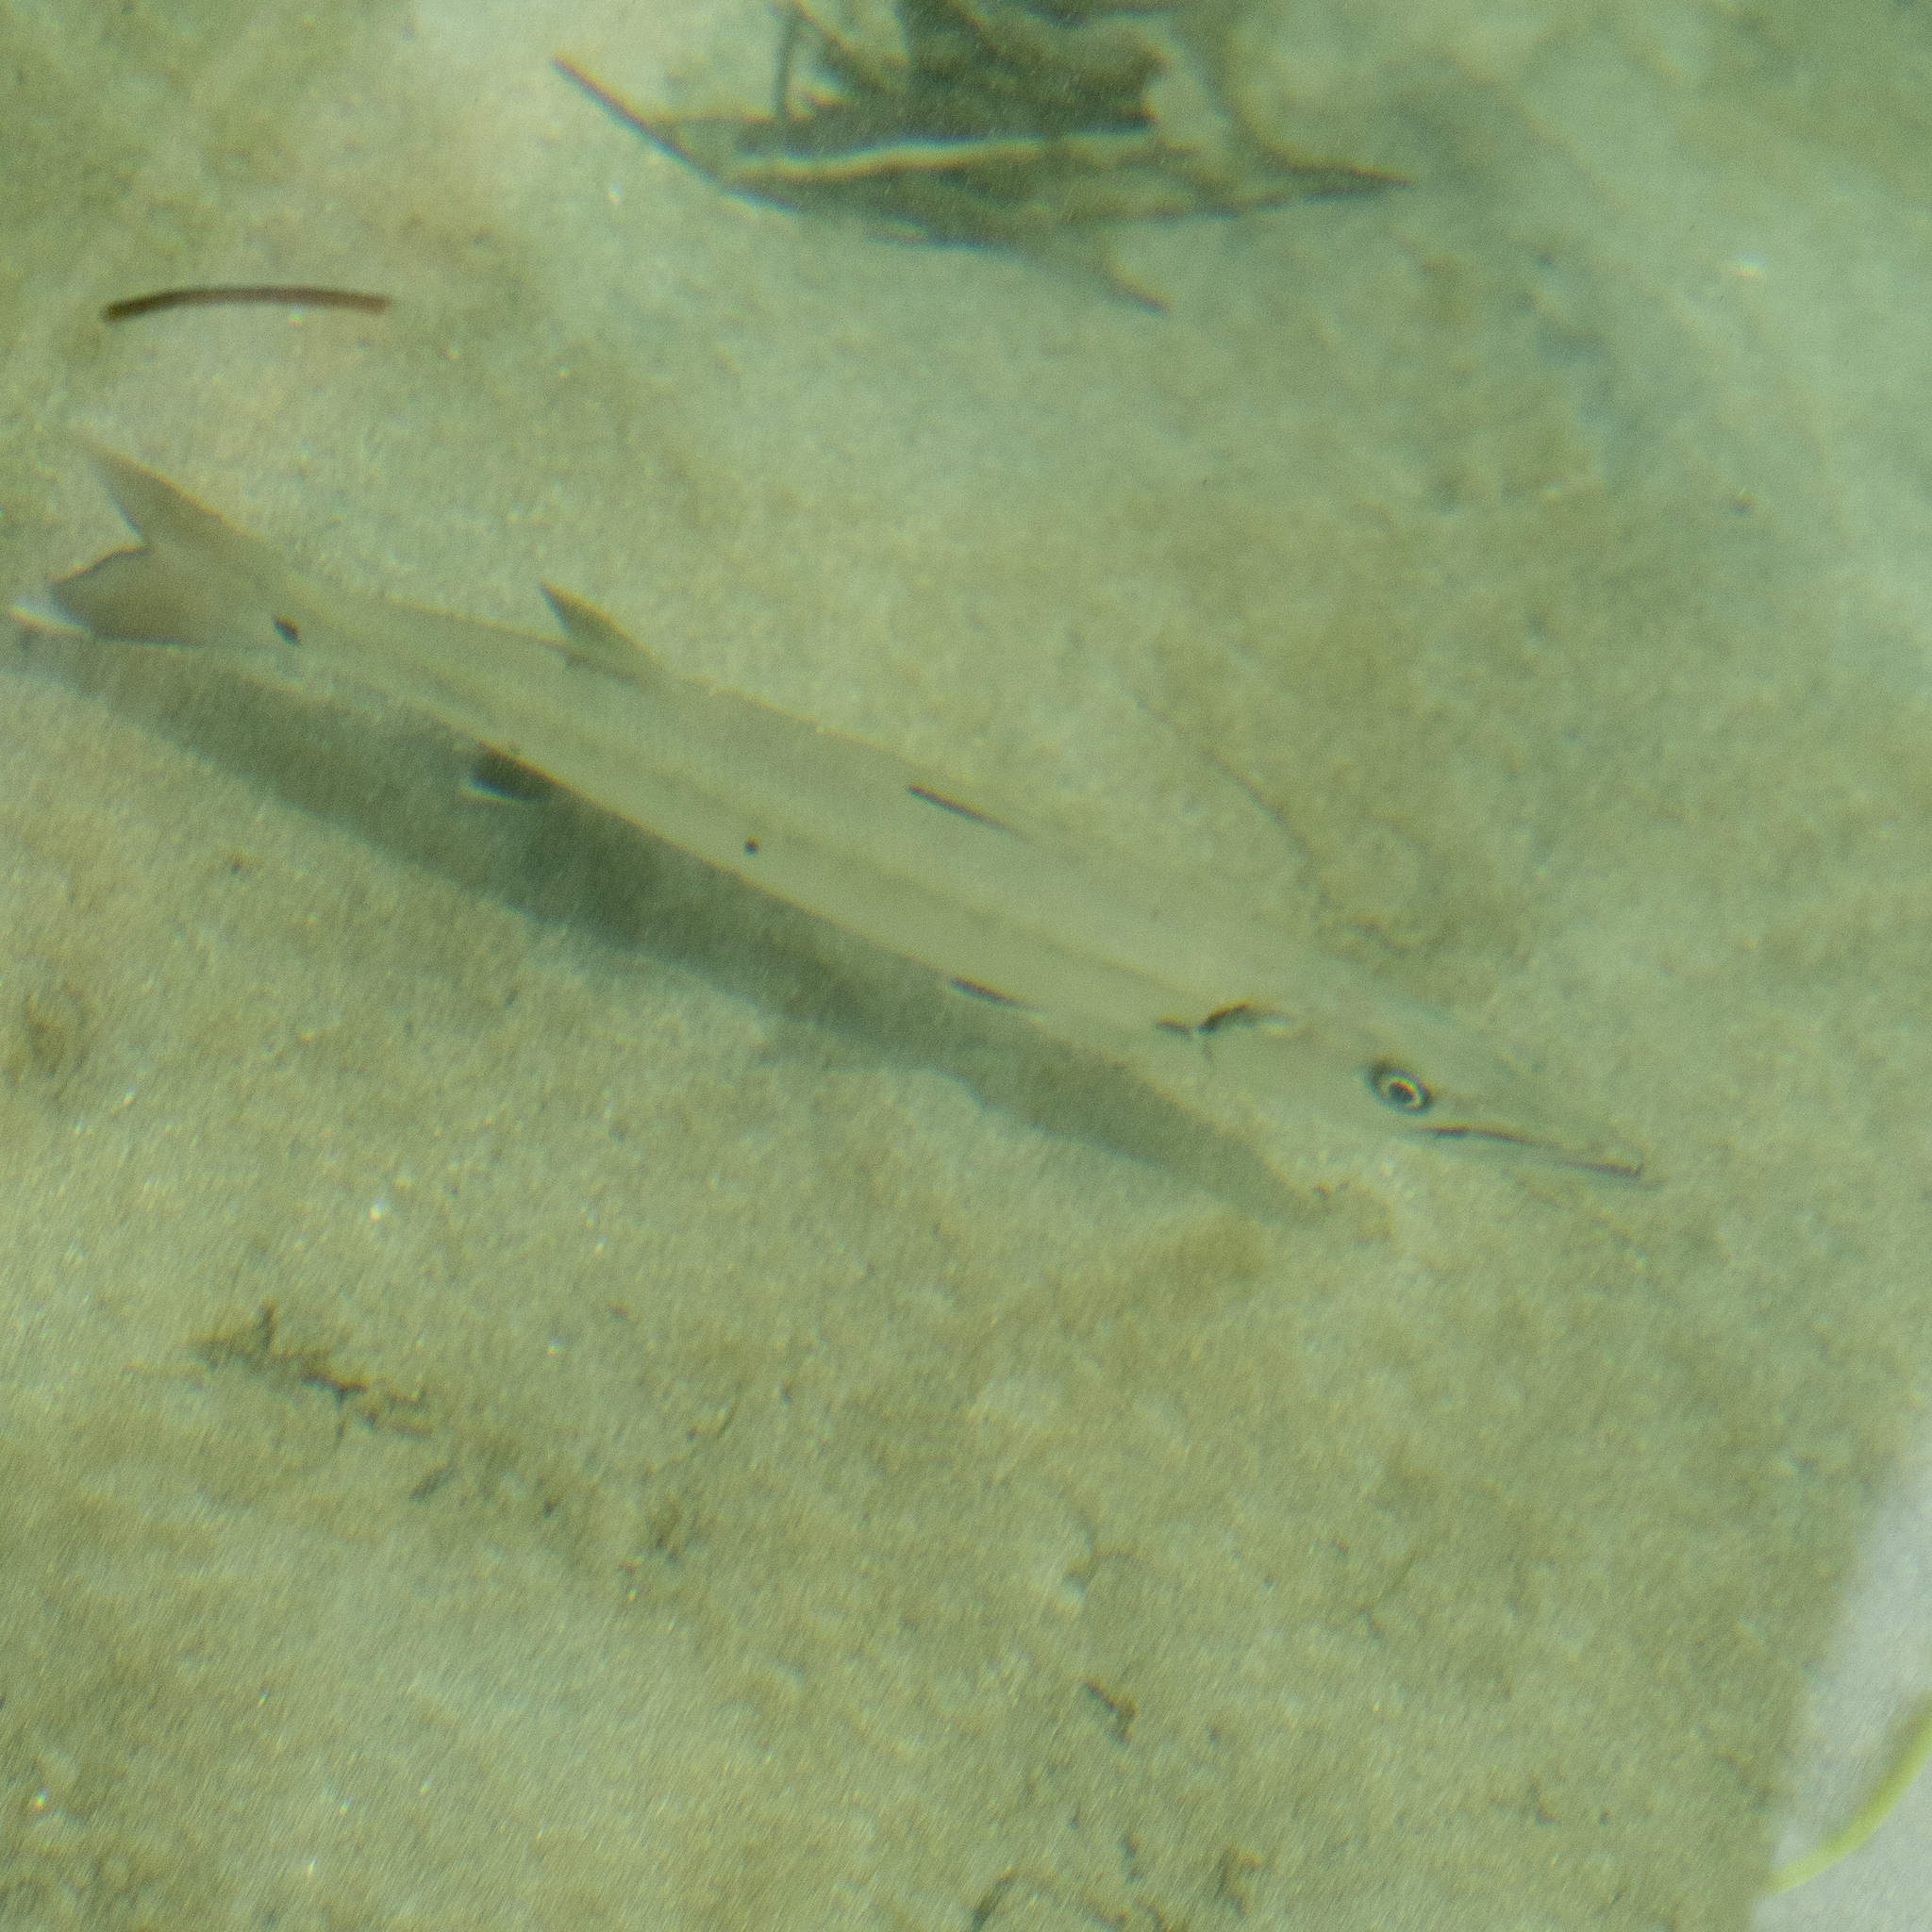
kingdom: Animalia
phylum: Chordata
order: Perciformes
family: Sphyraenidae
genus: Sphyraena
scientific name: Sphyraena barracuda
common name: Great barracuda
